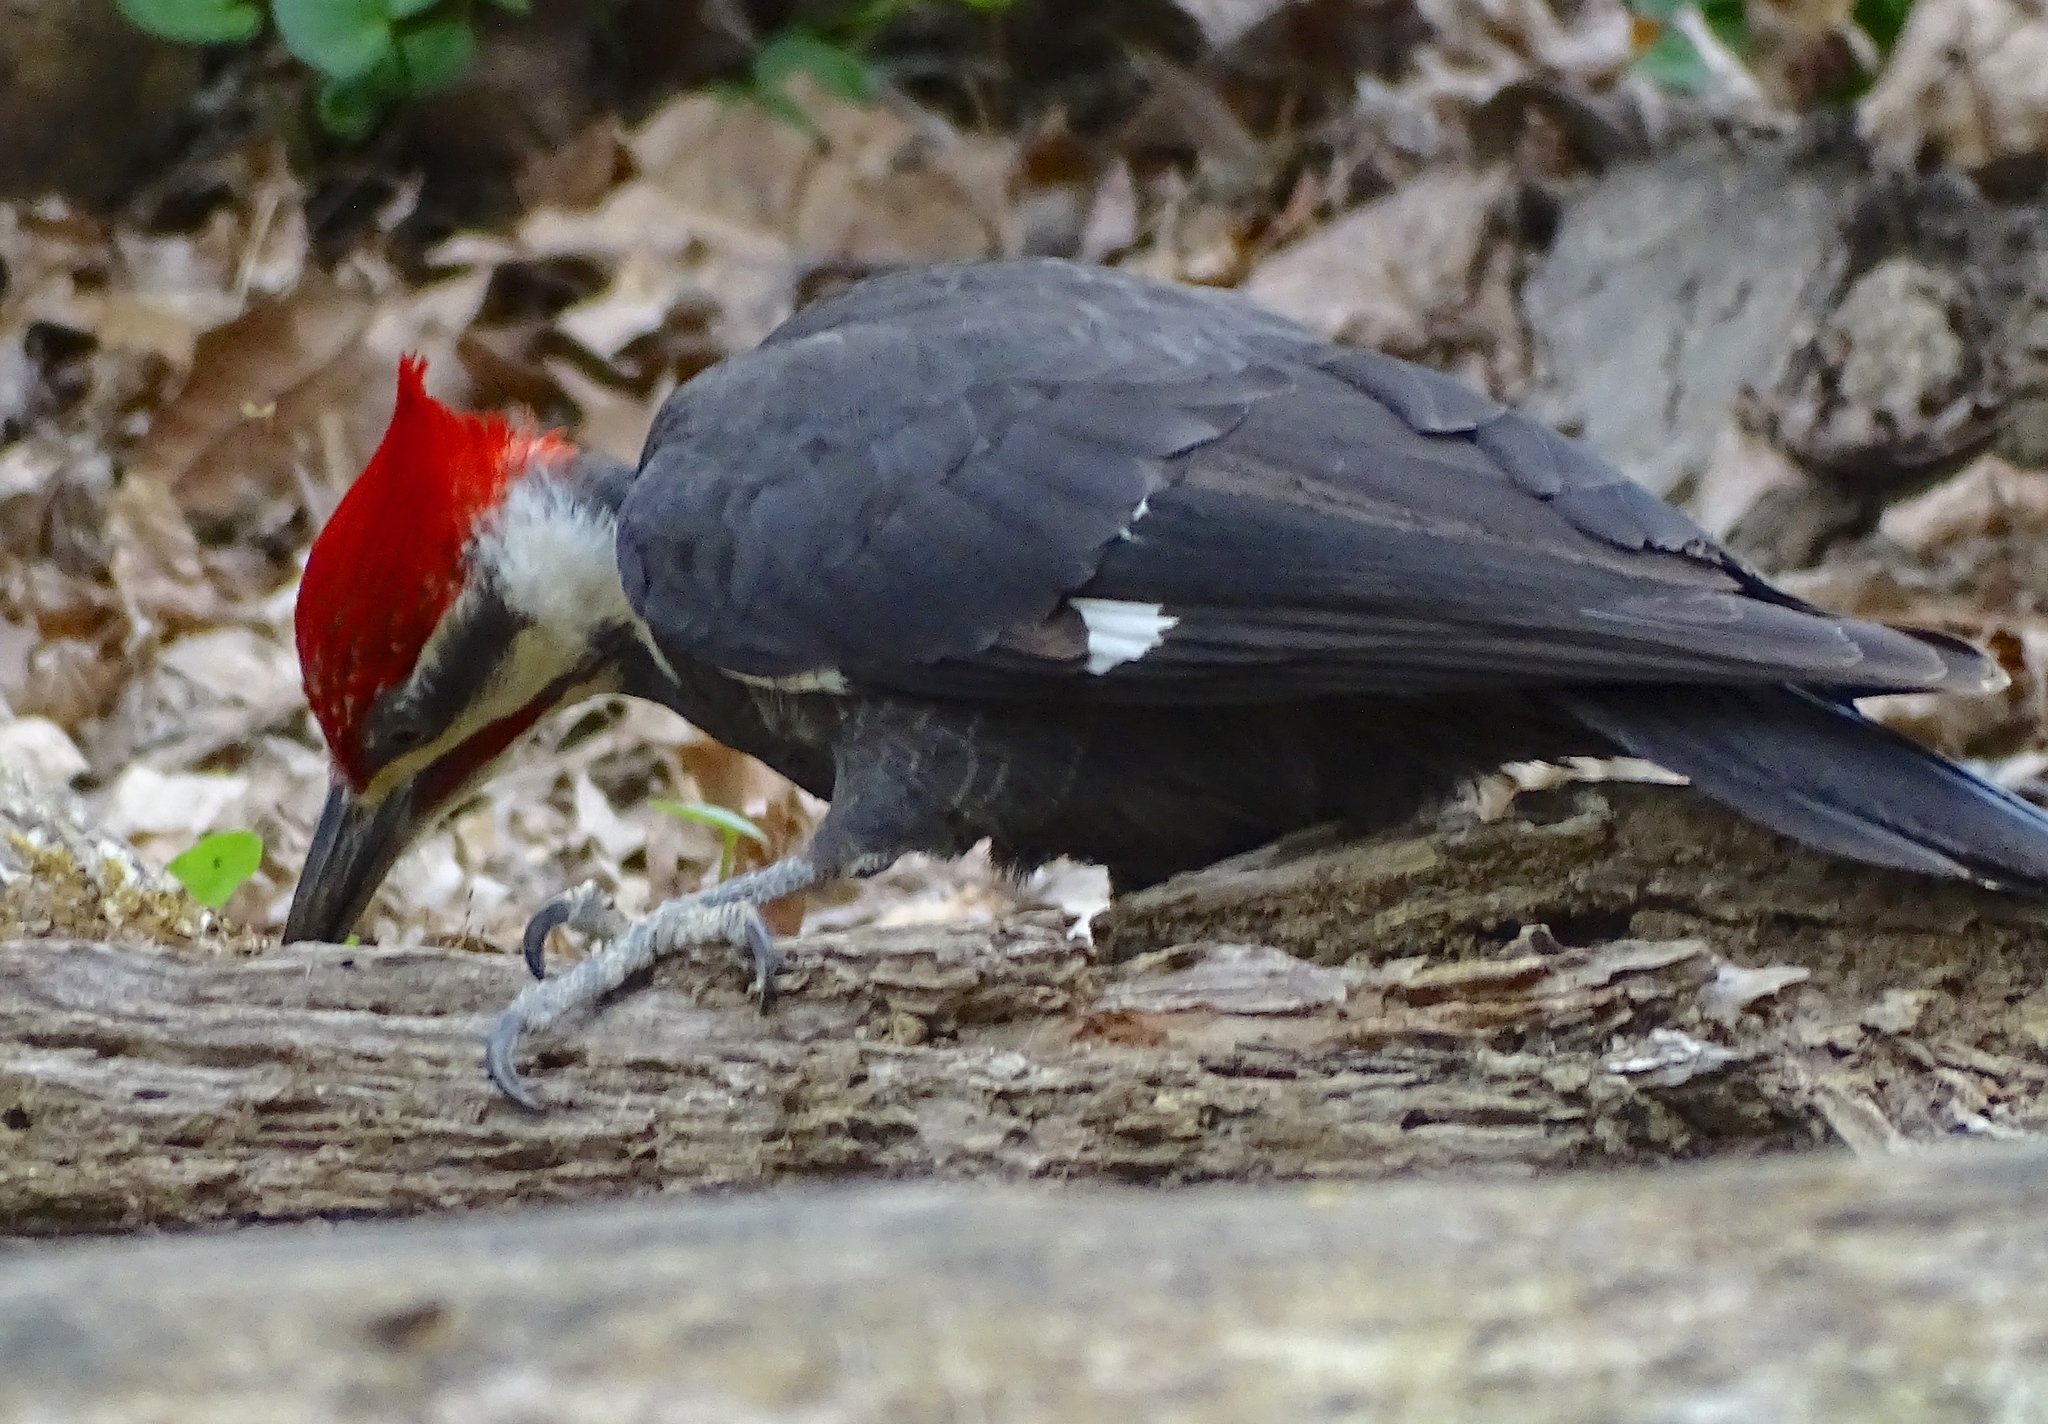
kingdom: Animalia
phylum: Chordata
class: Aves
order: Piciformes
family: Picidae
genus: Dryocopus
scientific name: Dryocopus pileatus
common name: Pileated woodpecker
